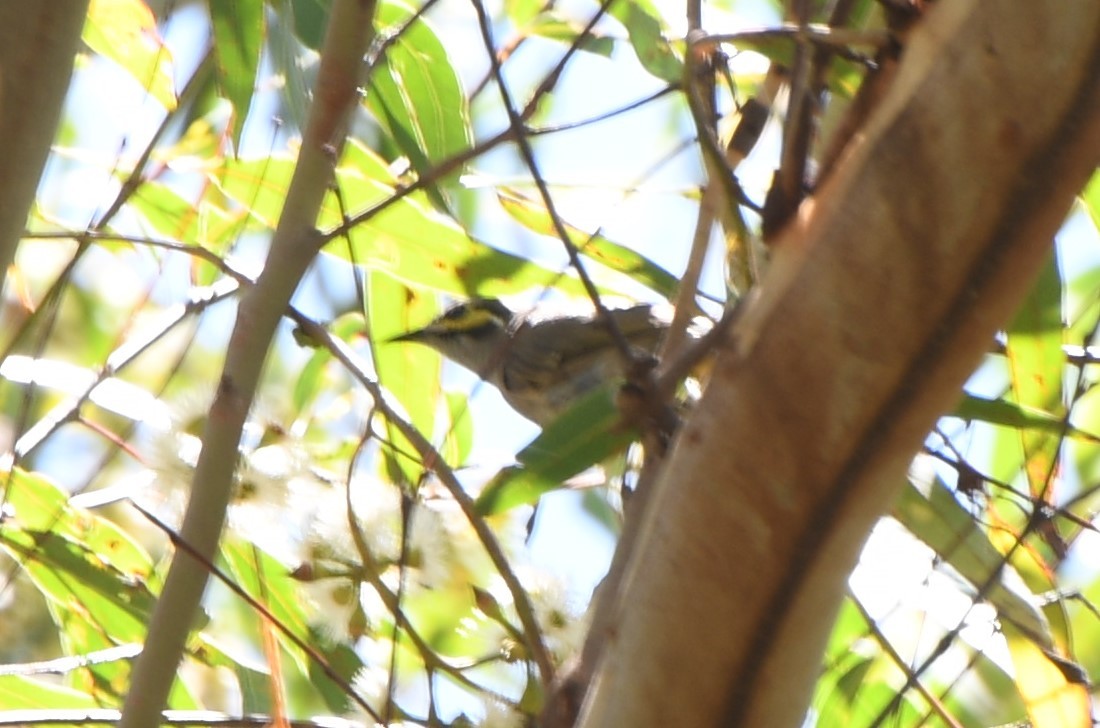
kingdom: Animalia
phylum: Chordata
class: Aves
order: Passeriformes
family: Meliphagidae
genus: Caligavis
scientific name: Caligavis chrysops
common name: Yellow-faced honeyeater
